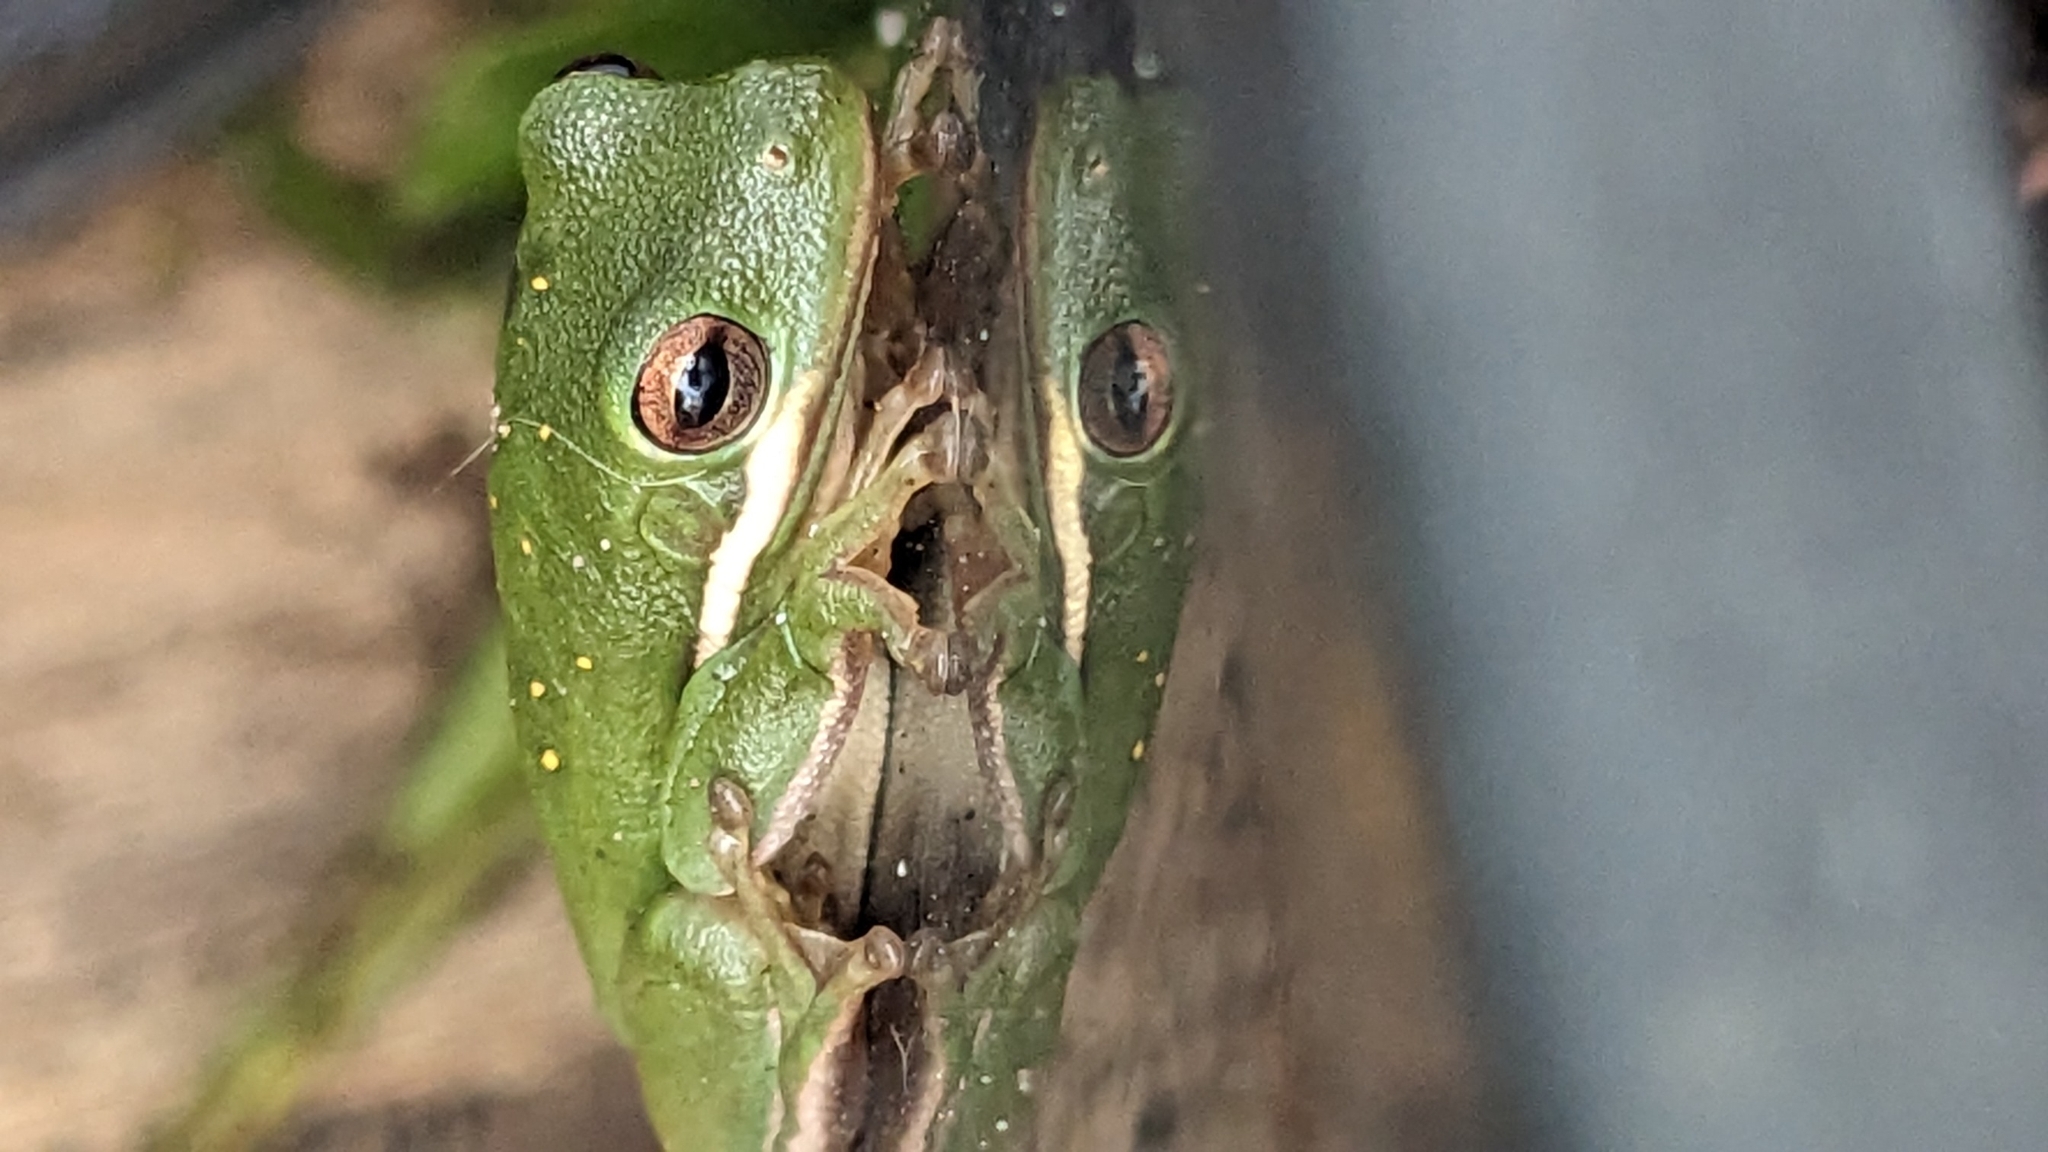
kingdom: Animalia
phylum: Chordata
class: Amphibia
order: Anura
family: Hylidae
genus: Dryophytes
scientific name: Dryophytes cinereus
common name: Green treefrog
